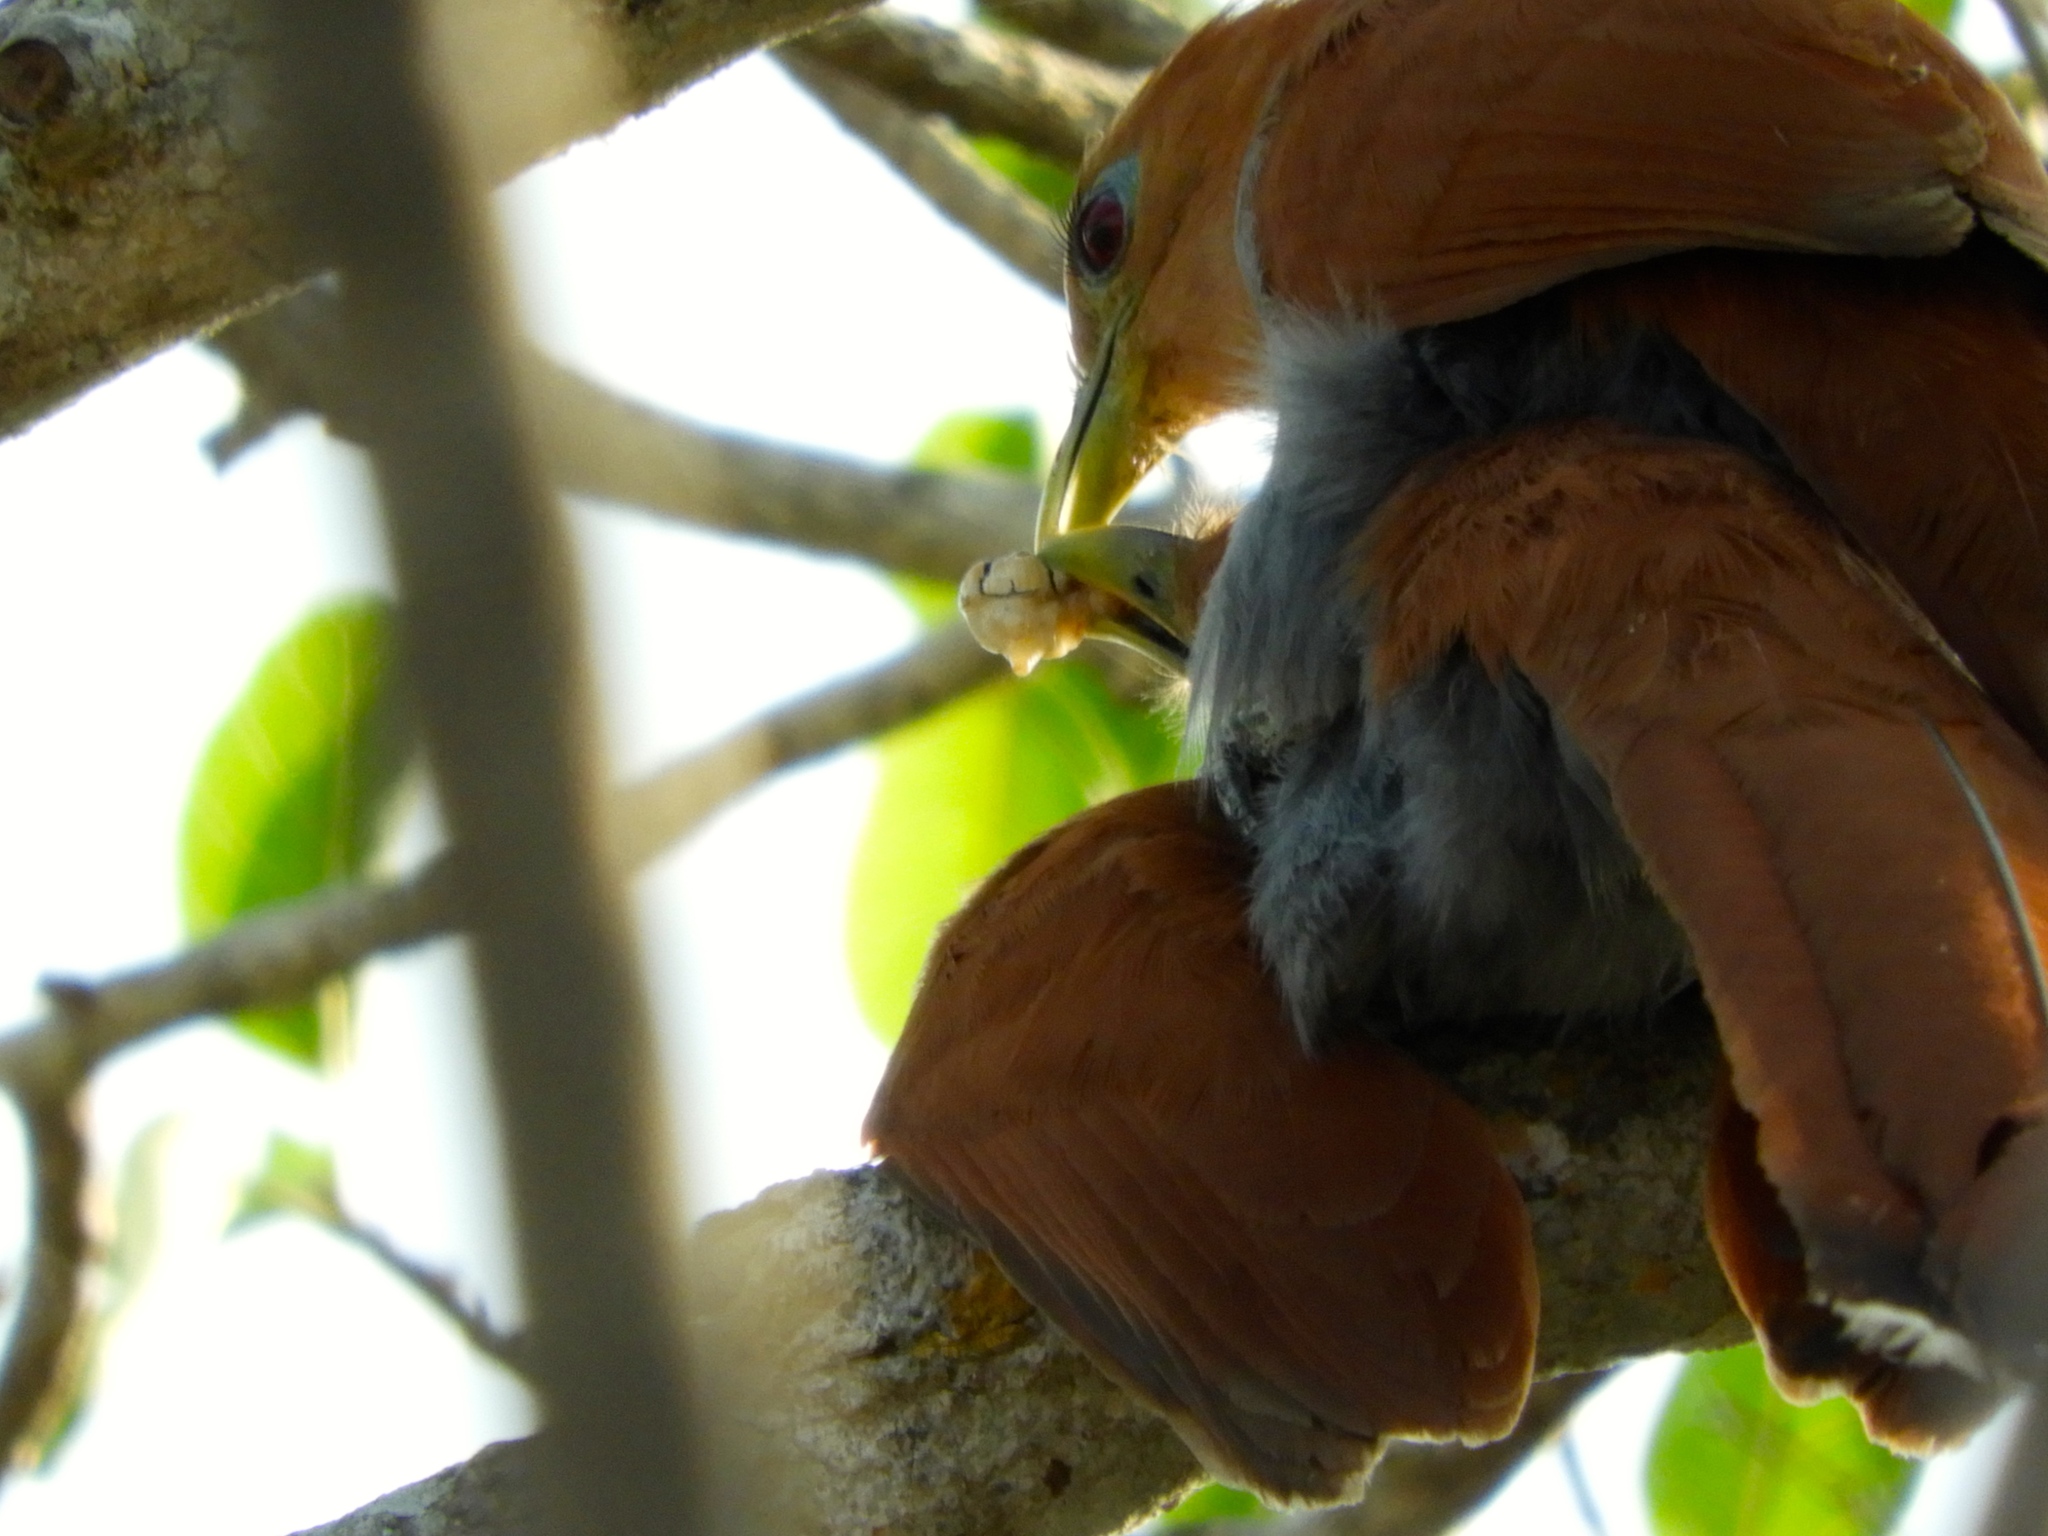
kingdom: Animalia
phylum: Chordata
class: Aves
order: Cuculiformes
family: Cuculidae
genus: Piaya
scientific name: Piaya cayana
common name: Squirrel cuckoo
